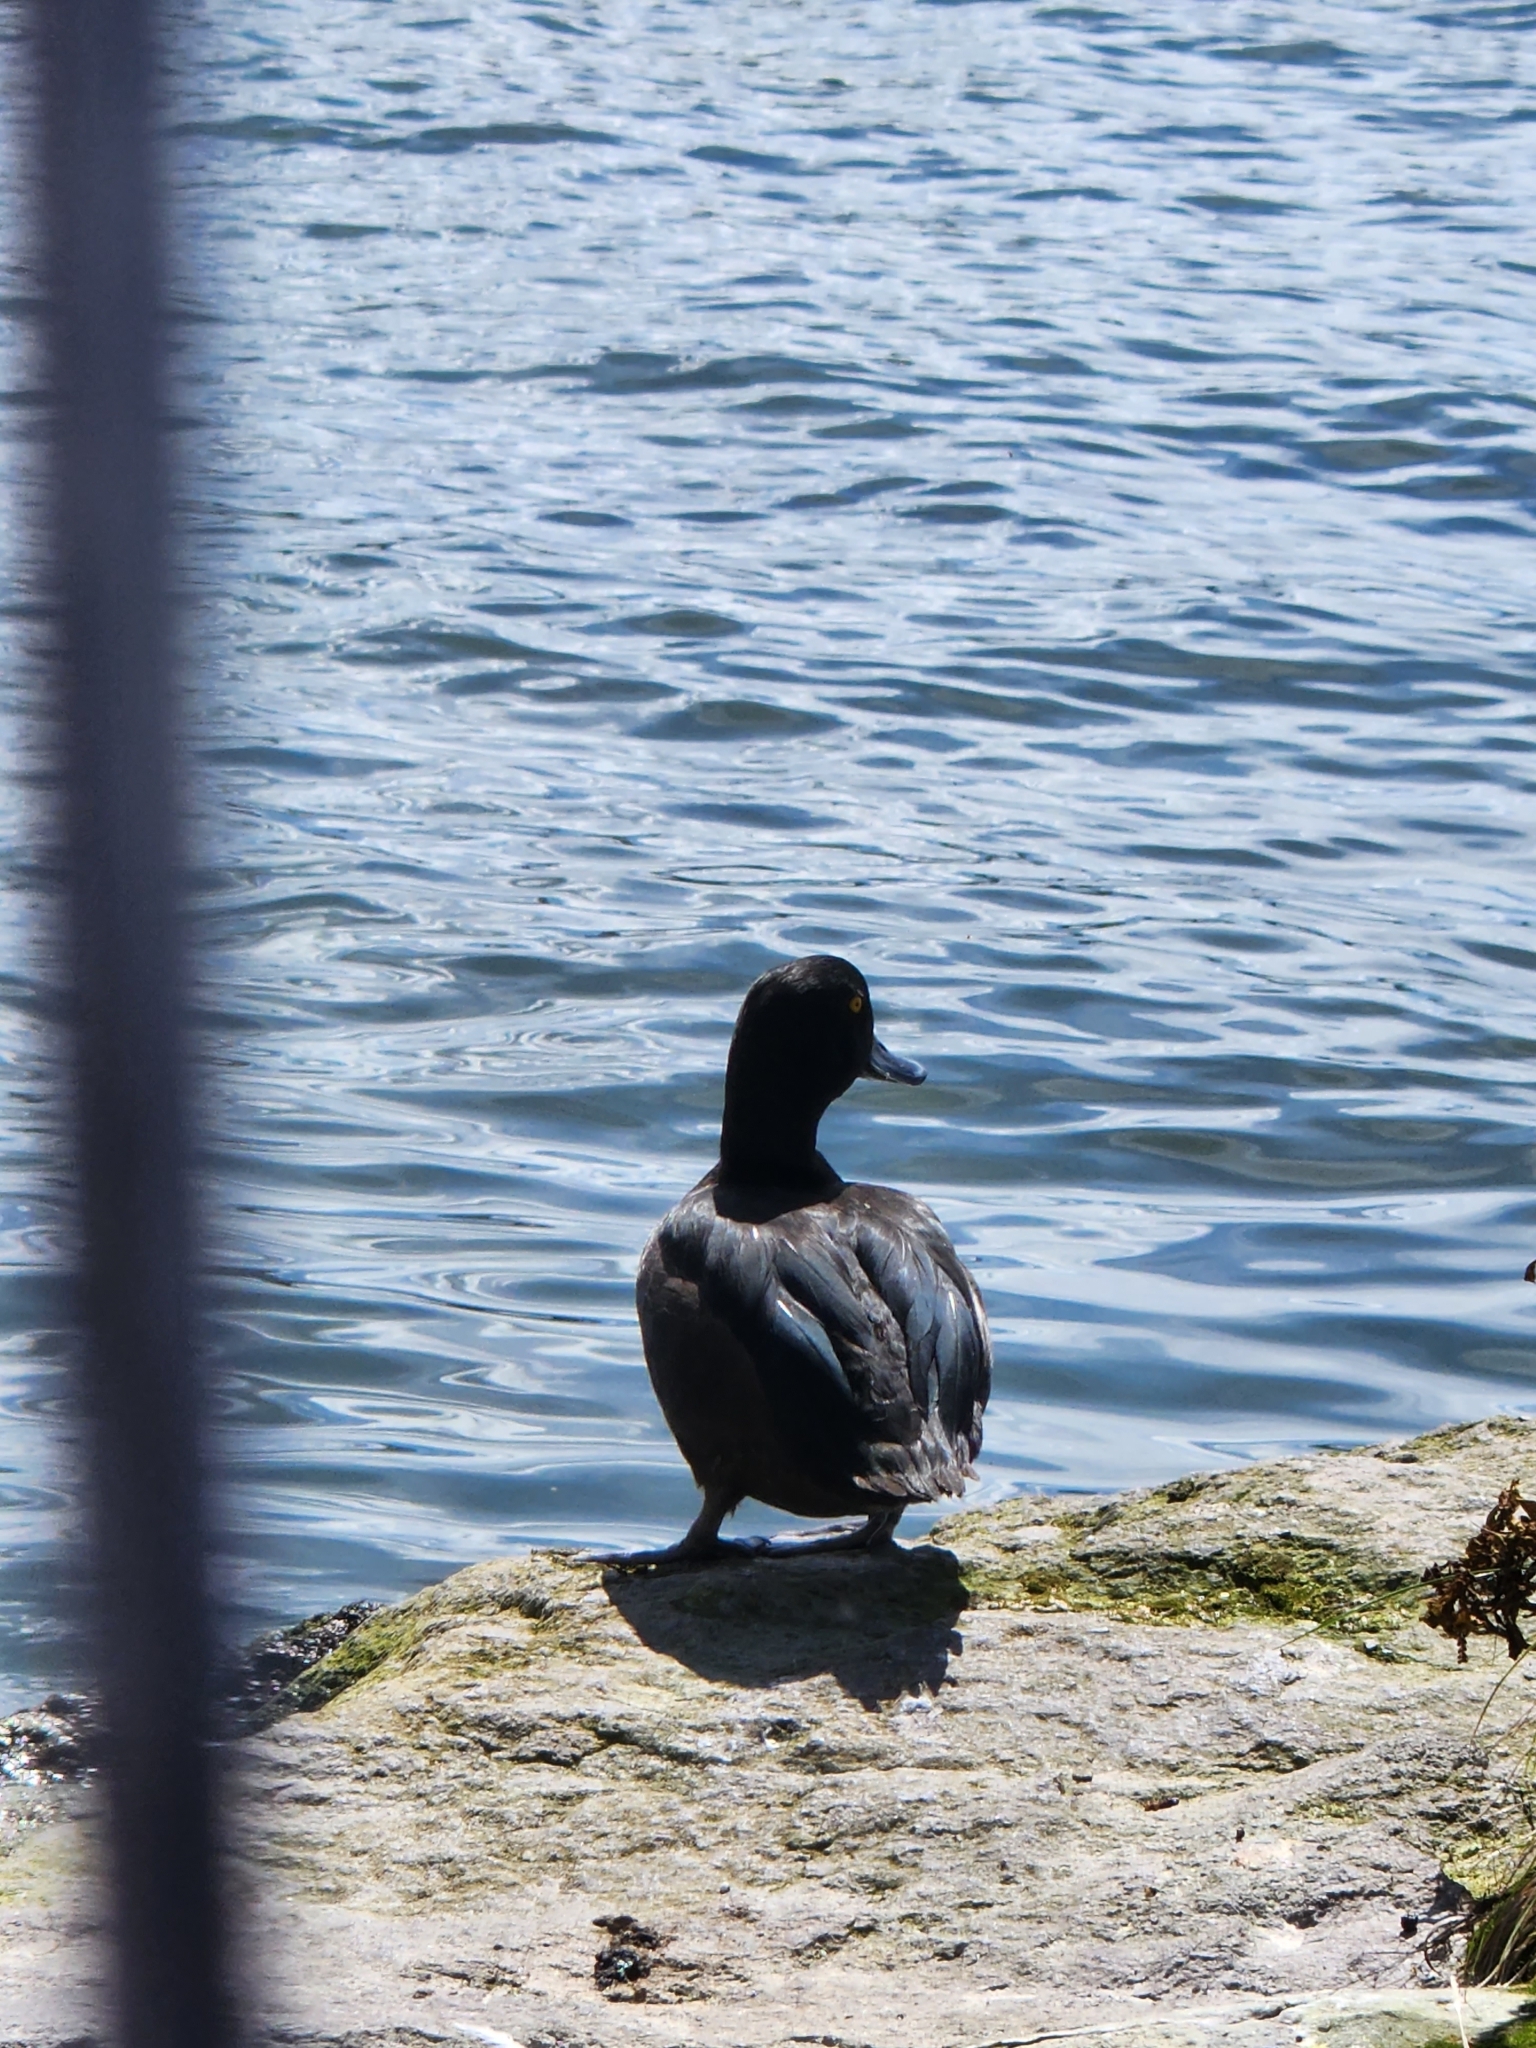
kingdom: Animalia
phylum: Chordata
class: Aves
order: Anseriformes
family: Anatidae
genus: Aythya
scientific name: Aythya novaeseelandiae
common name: New zealand scaup
